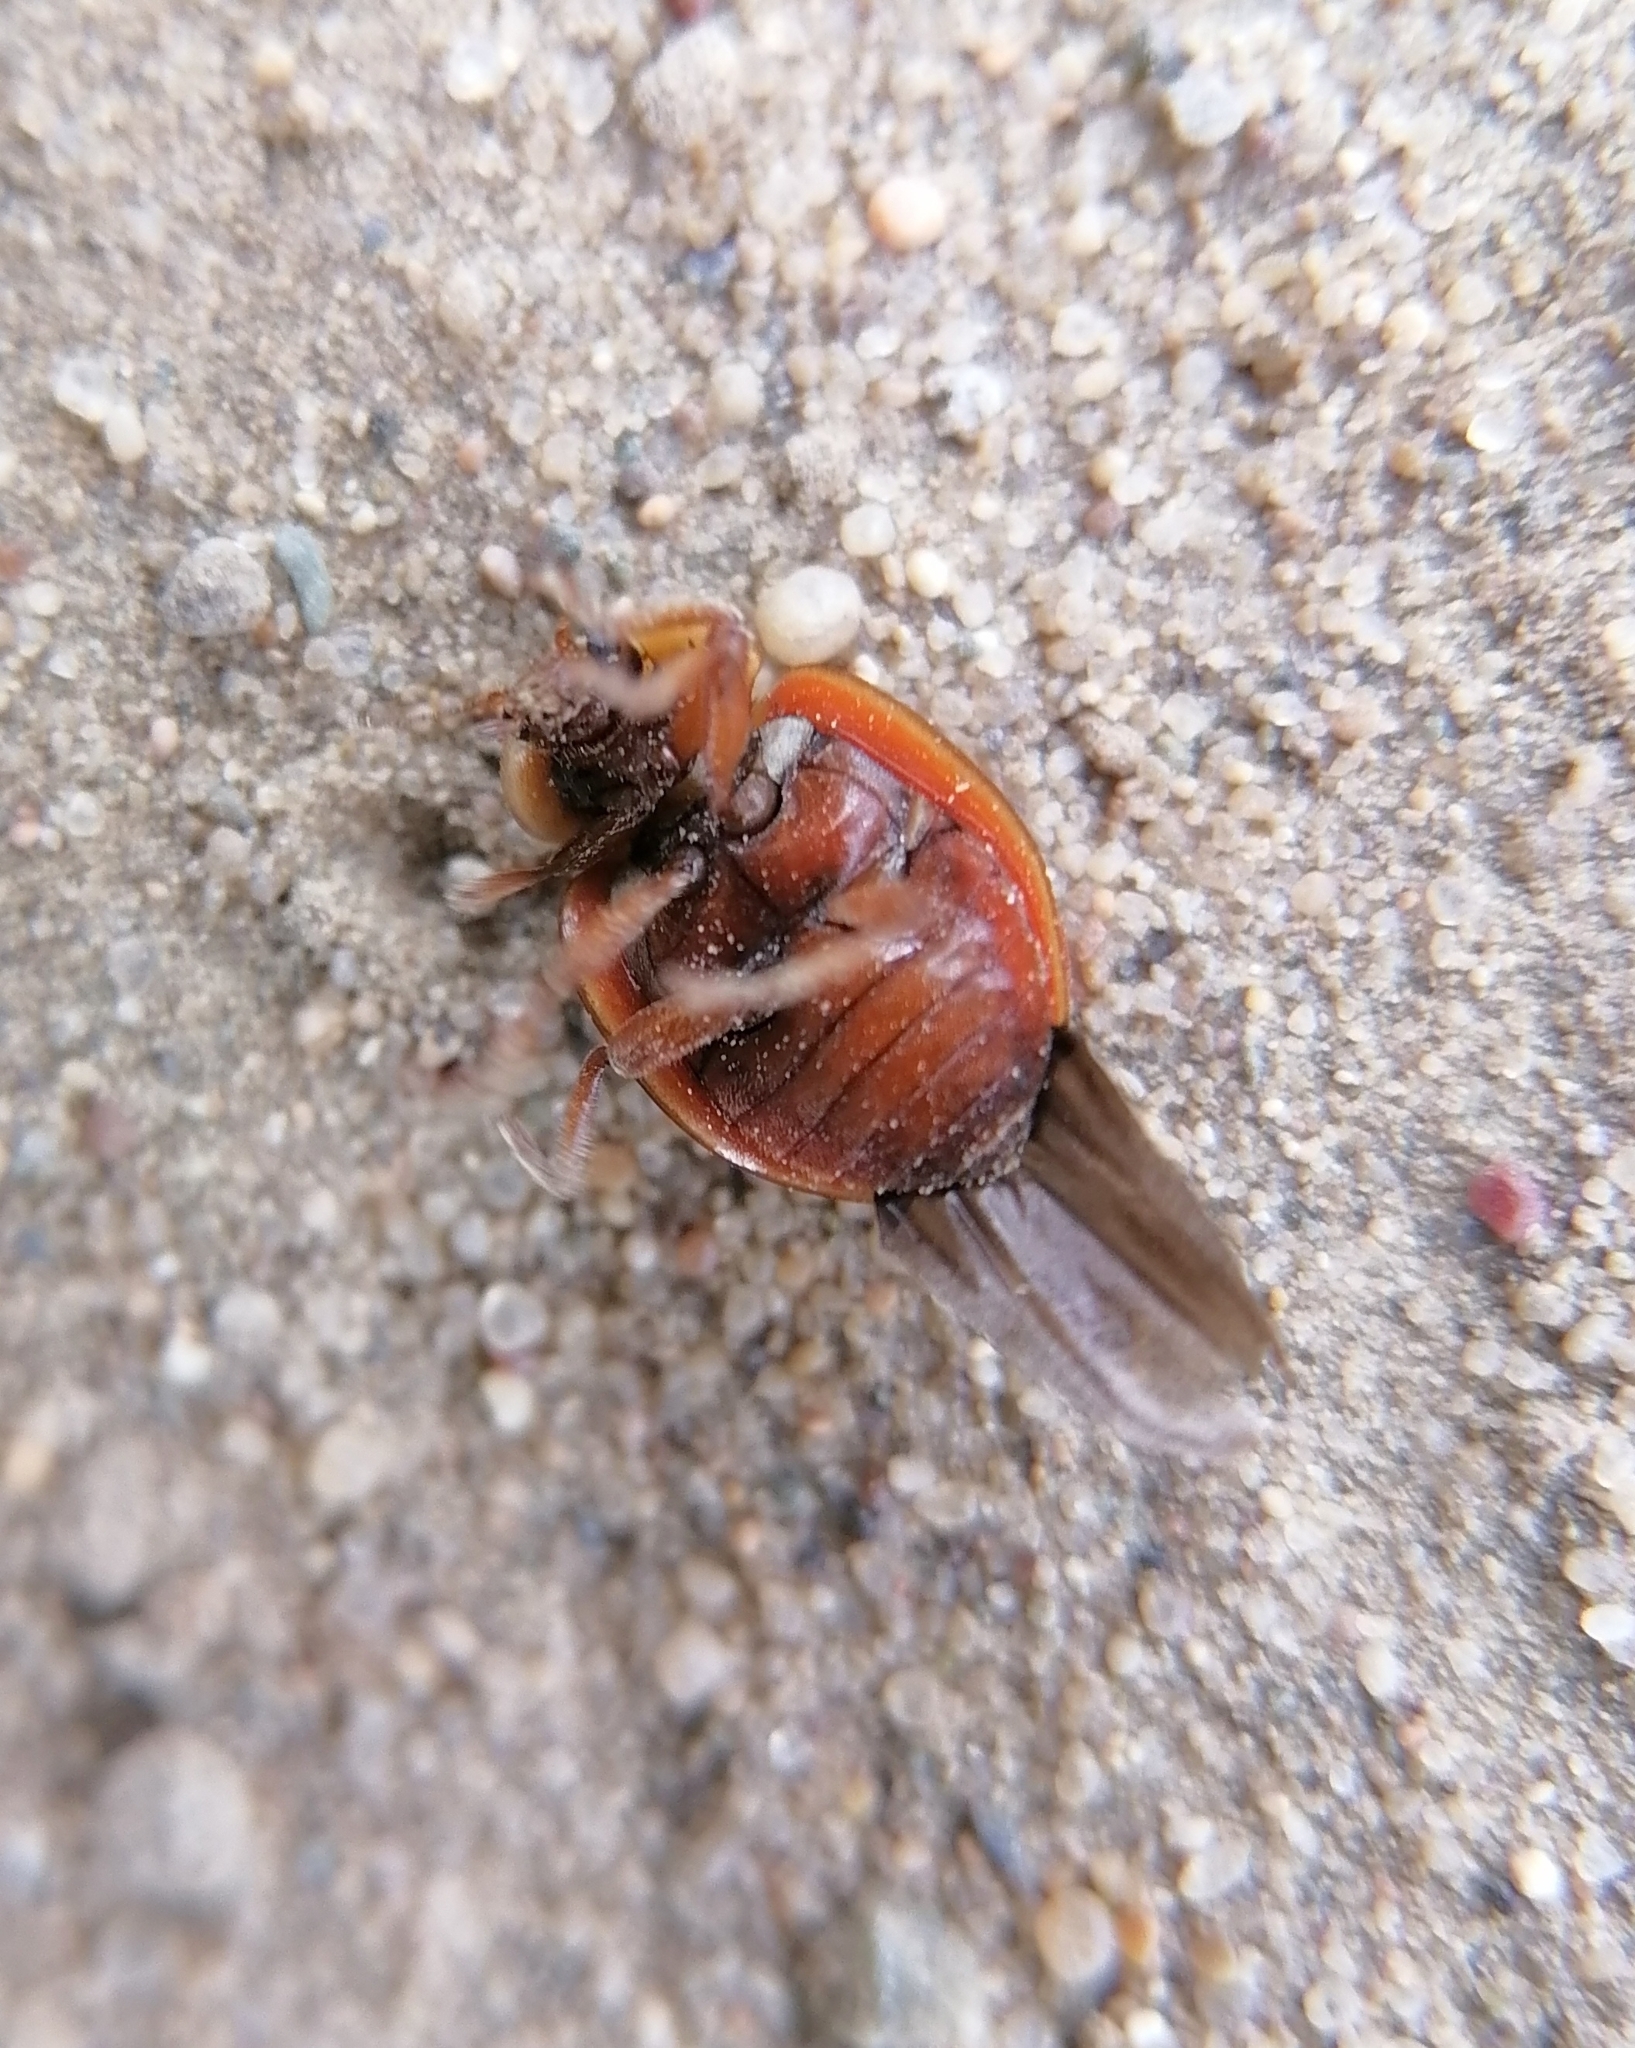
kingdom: Animalia
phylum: Arthropoda
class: Insecta
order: Coleoptera
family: Coccinellidae
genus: Myzia
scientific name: Myzia oblongoguttata
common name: Striped ladybird
